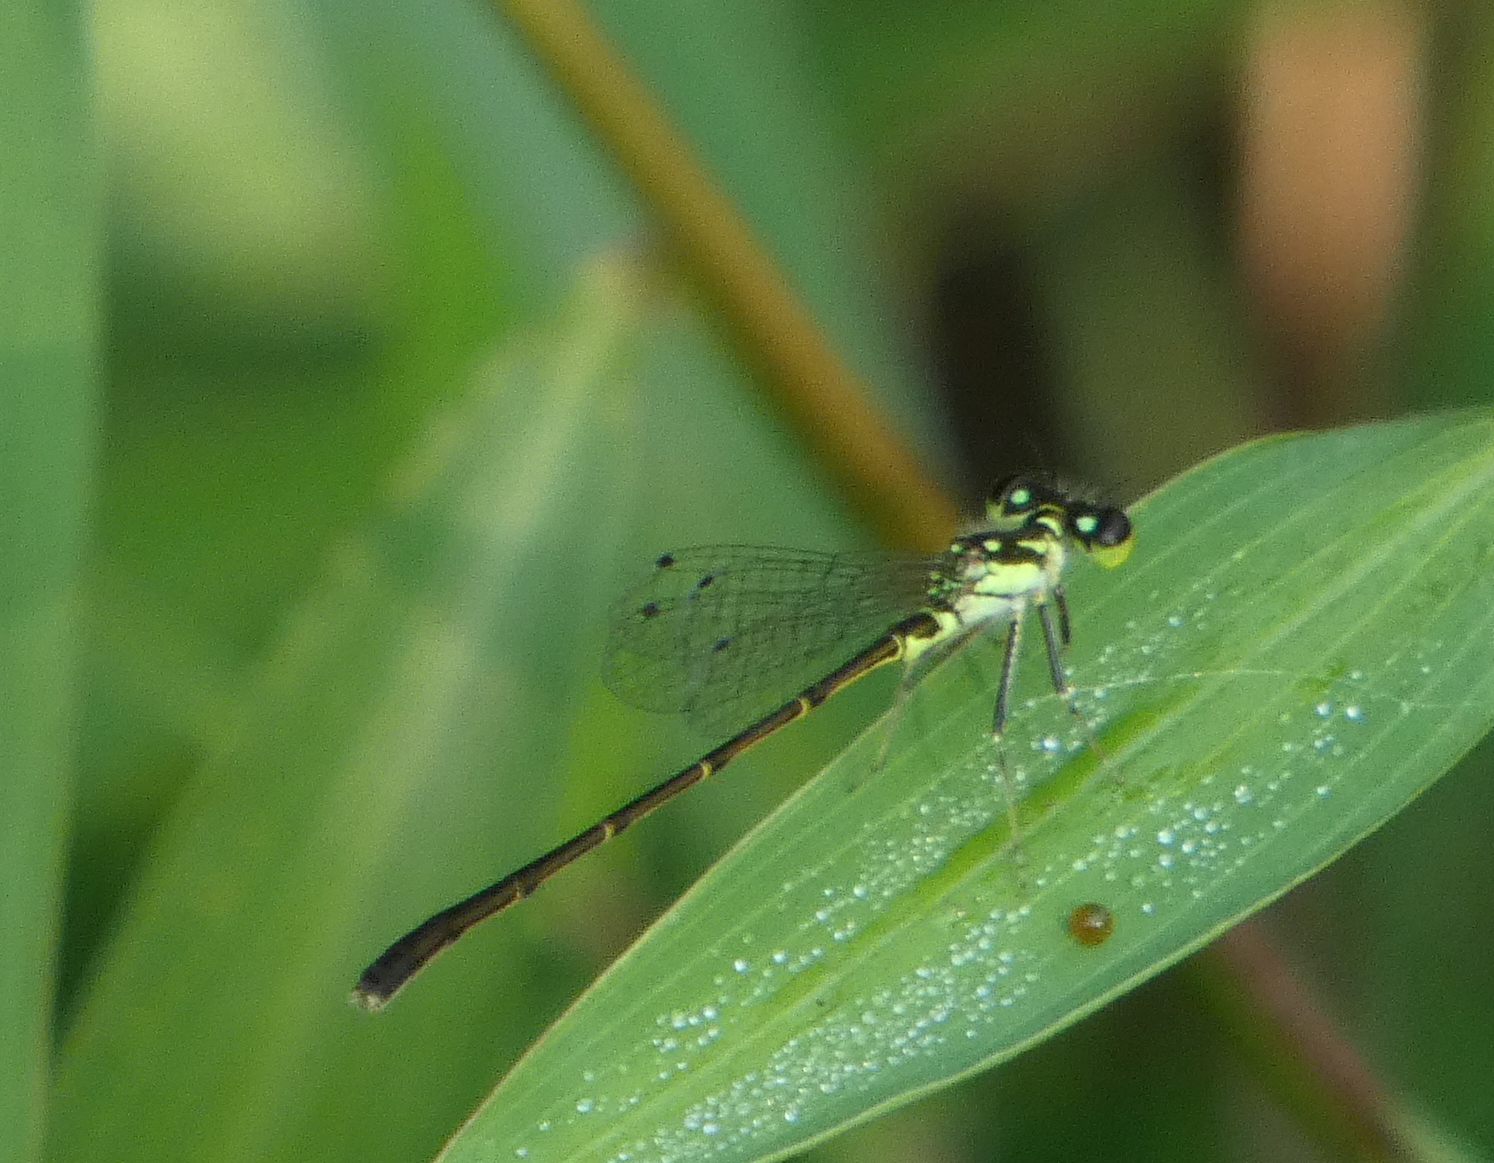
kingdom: Animalia
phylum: Arthropoda
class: Insecta
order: Odonata
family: Coenagrionidae
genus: Ischnura
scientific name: Ischnura posita
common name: Fragile forktail
